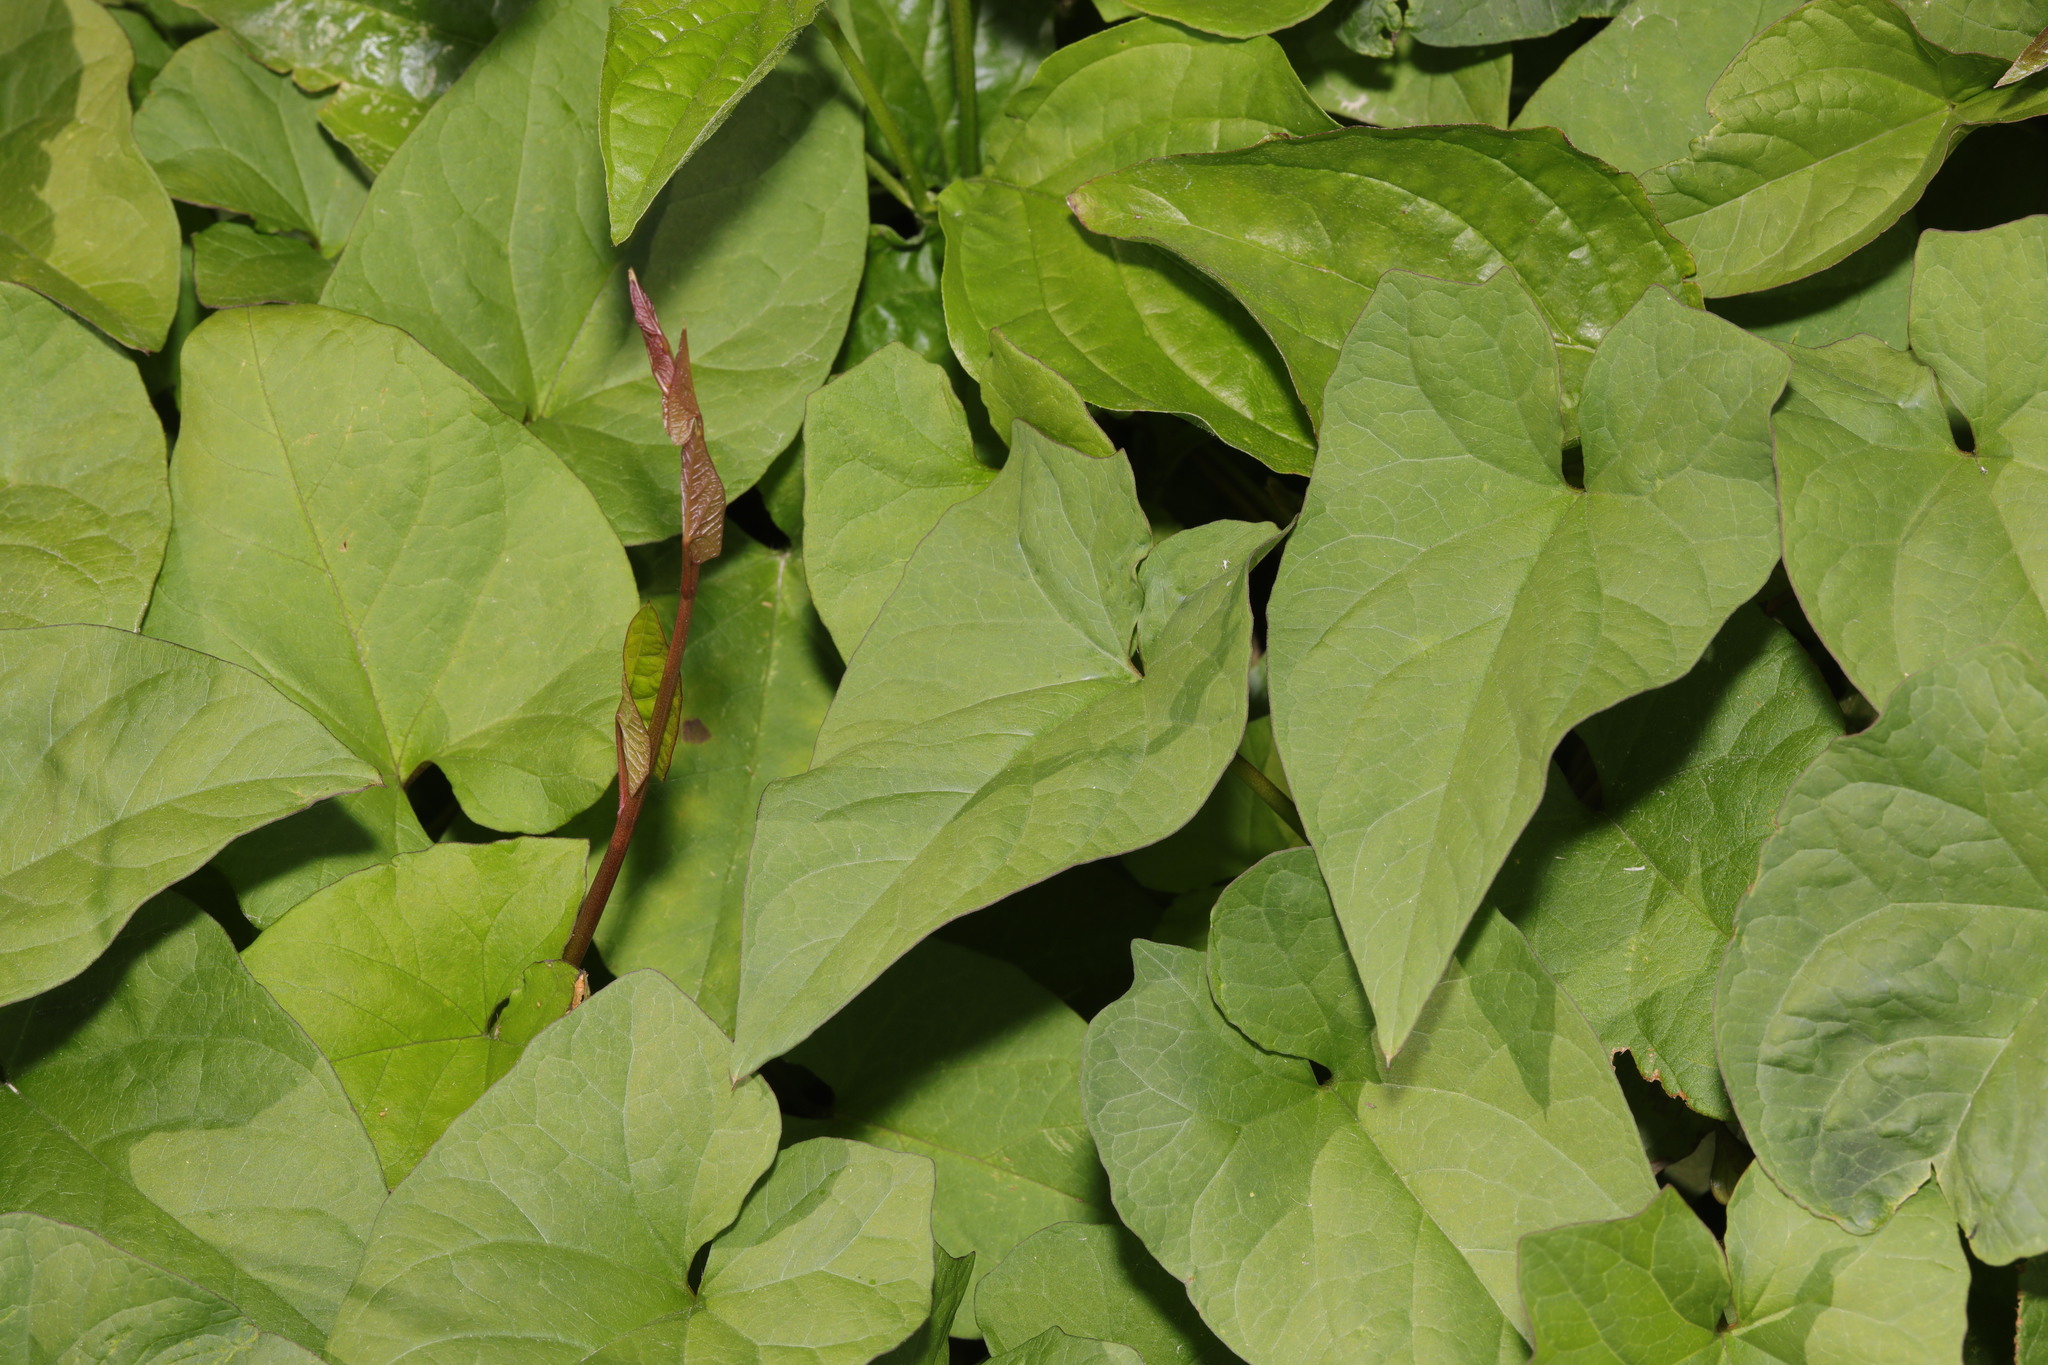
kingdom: Plantae
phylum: Tracheophyta
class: Magnoliopsida
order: Solanales
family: Convolvulaceae
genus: Calystegia
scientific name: Calystegia
